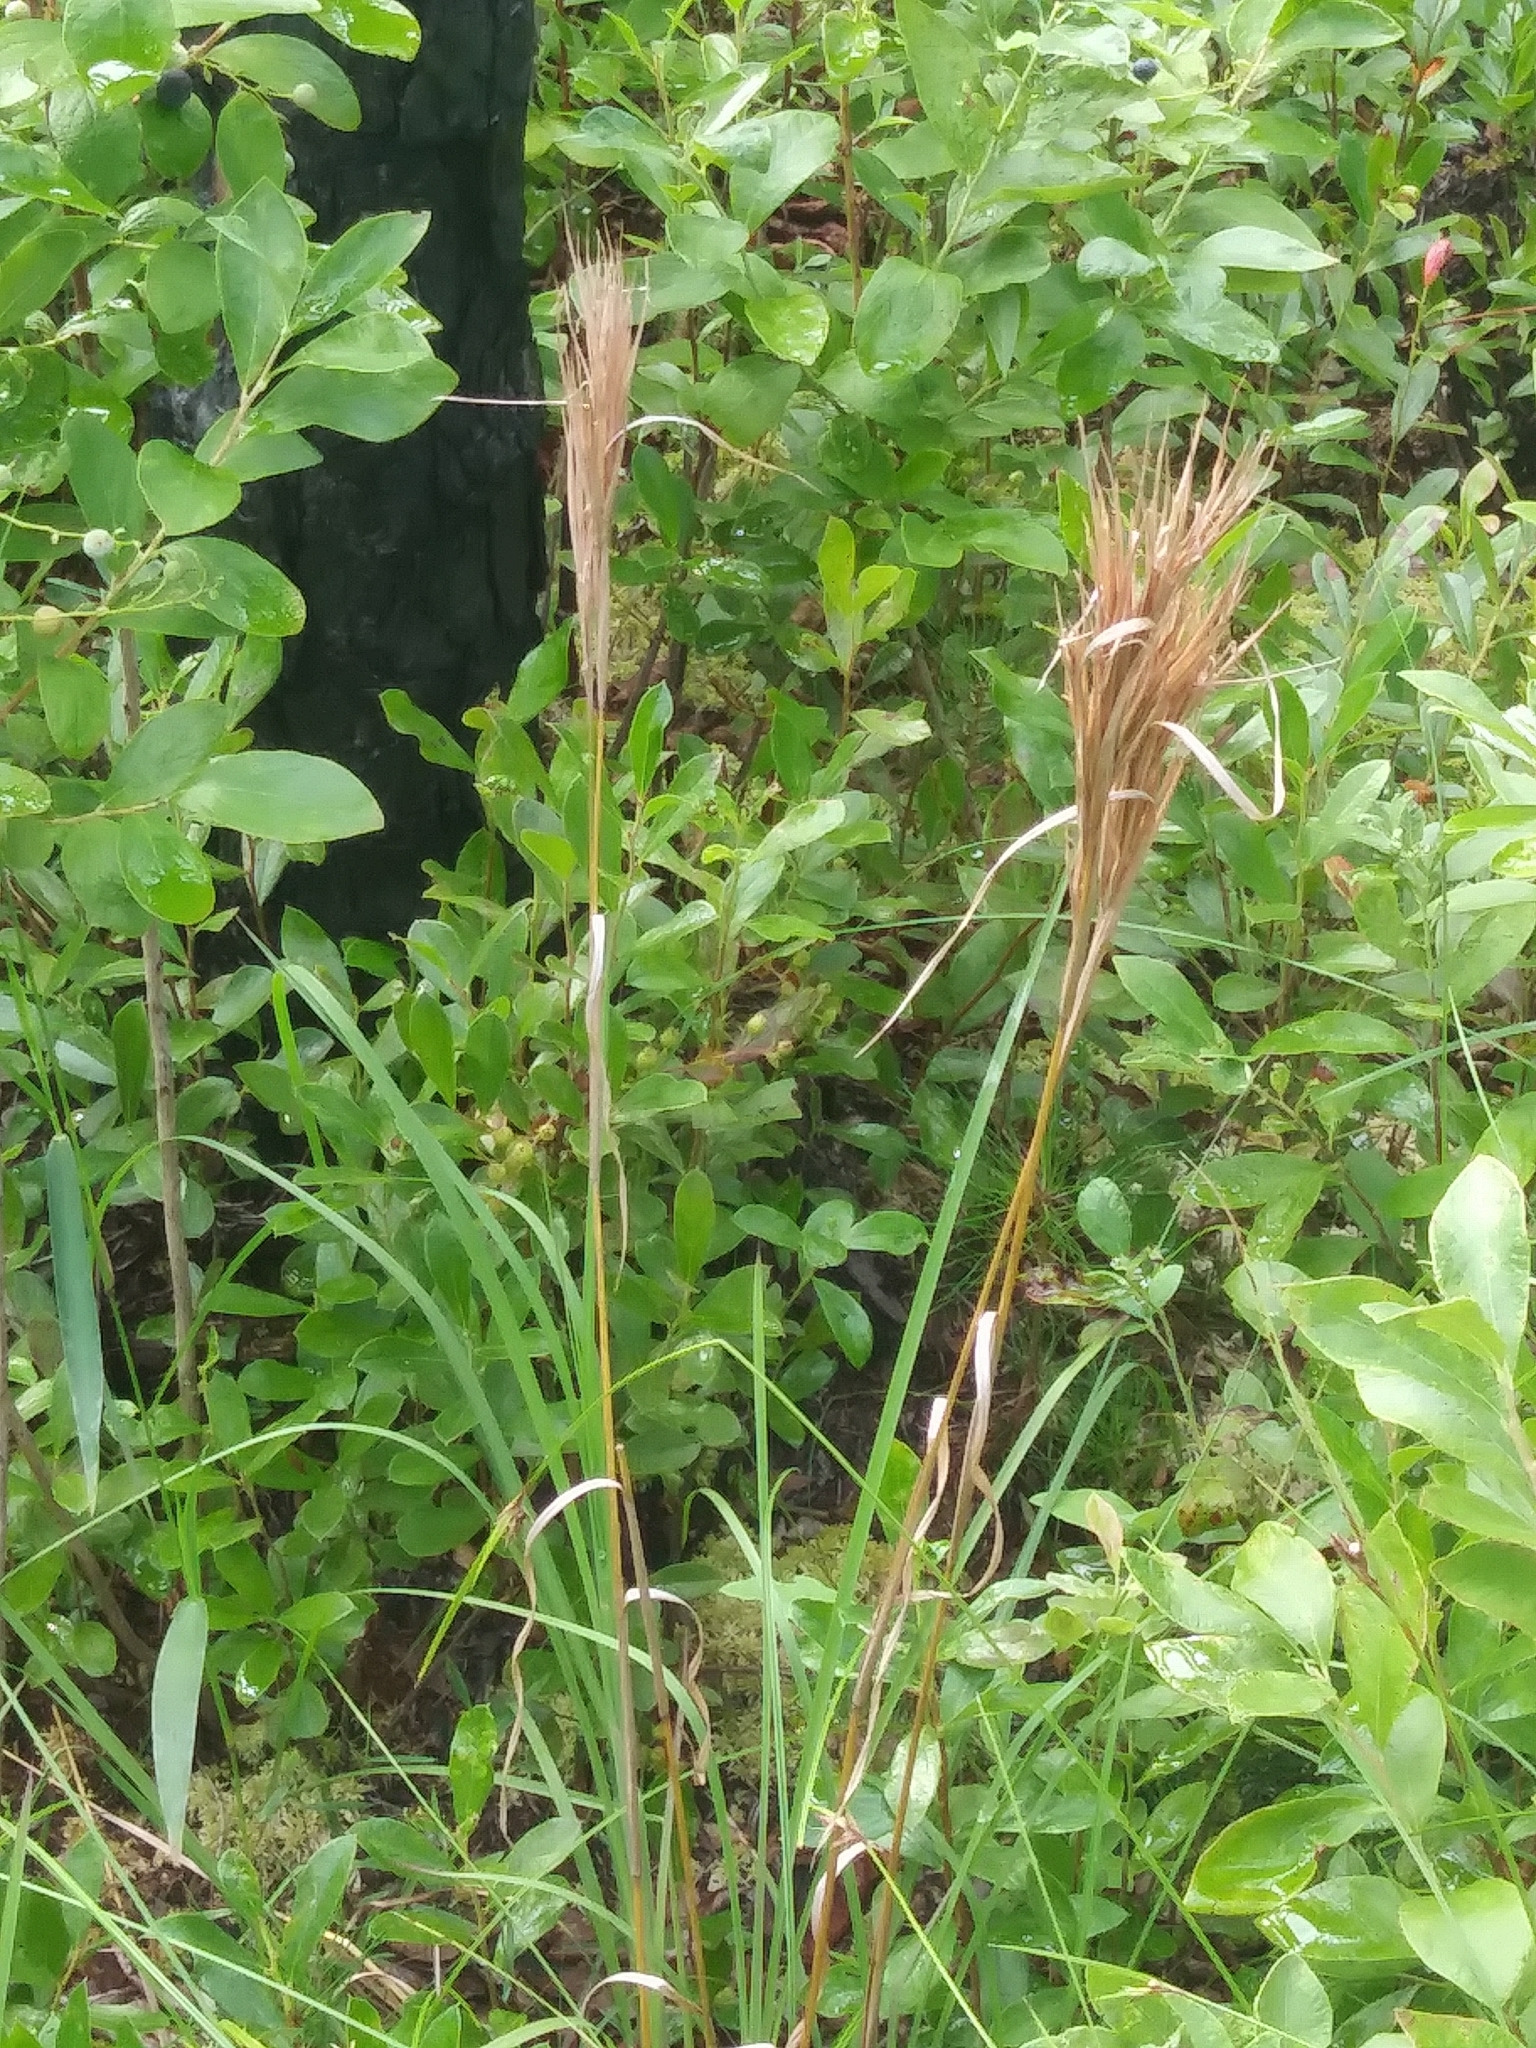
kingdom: Plantae
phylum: Tracheophyta
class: Liliopsida
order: Poales
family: Poaceae
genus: Andropogon
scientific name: Andropogon glomeratus
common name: Bushy beard grass
